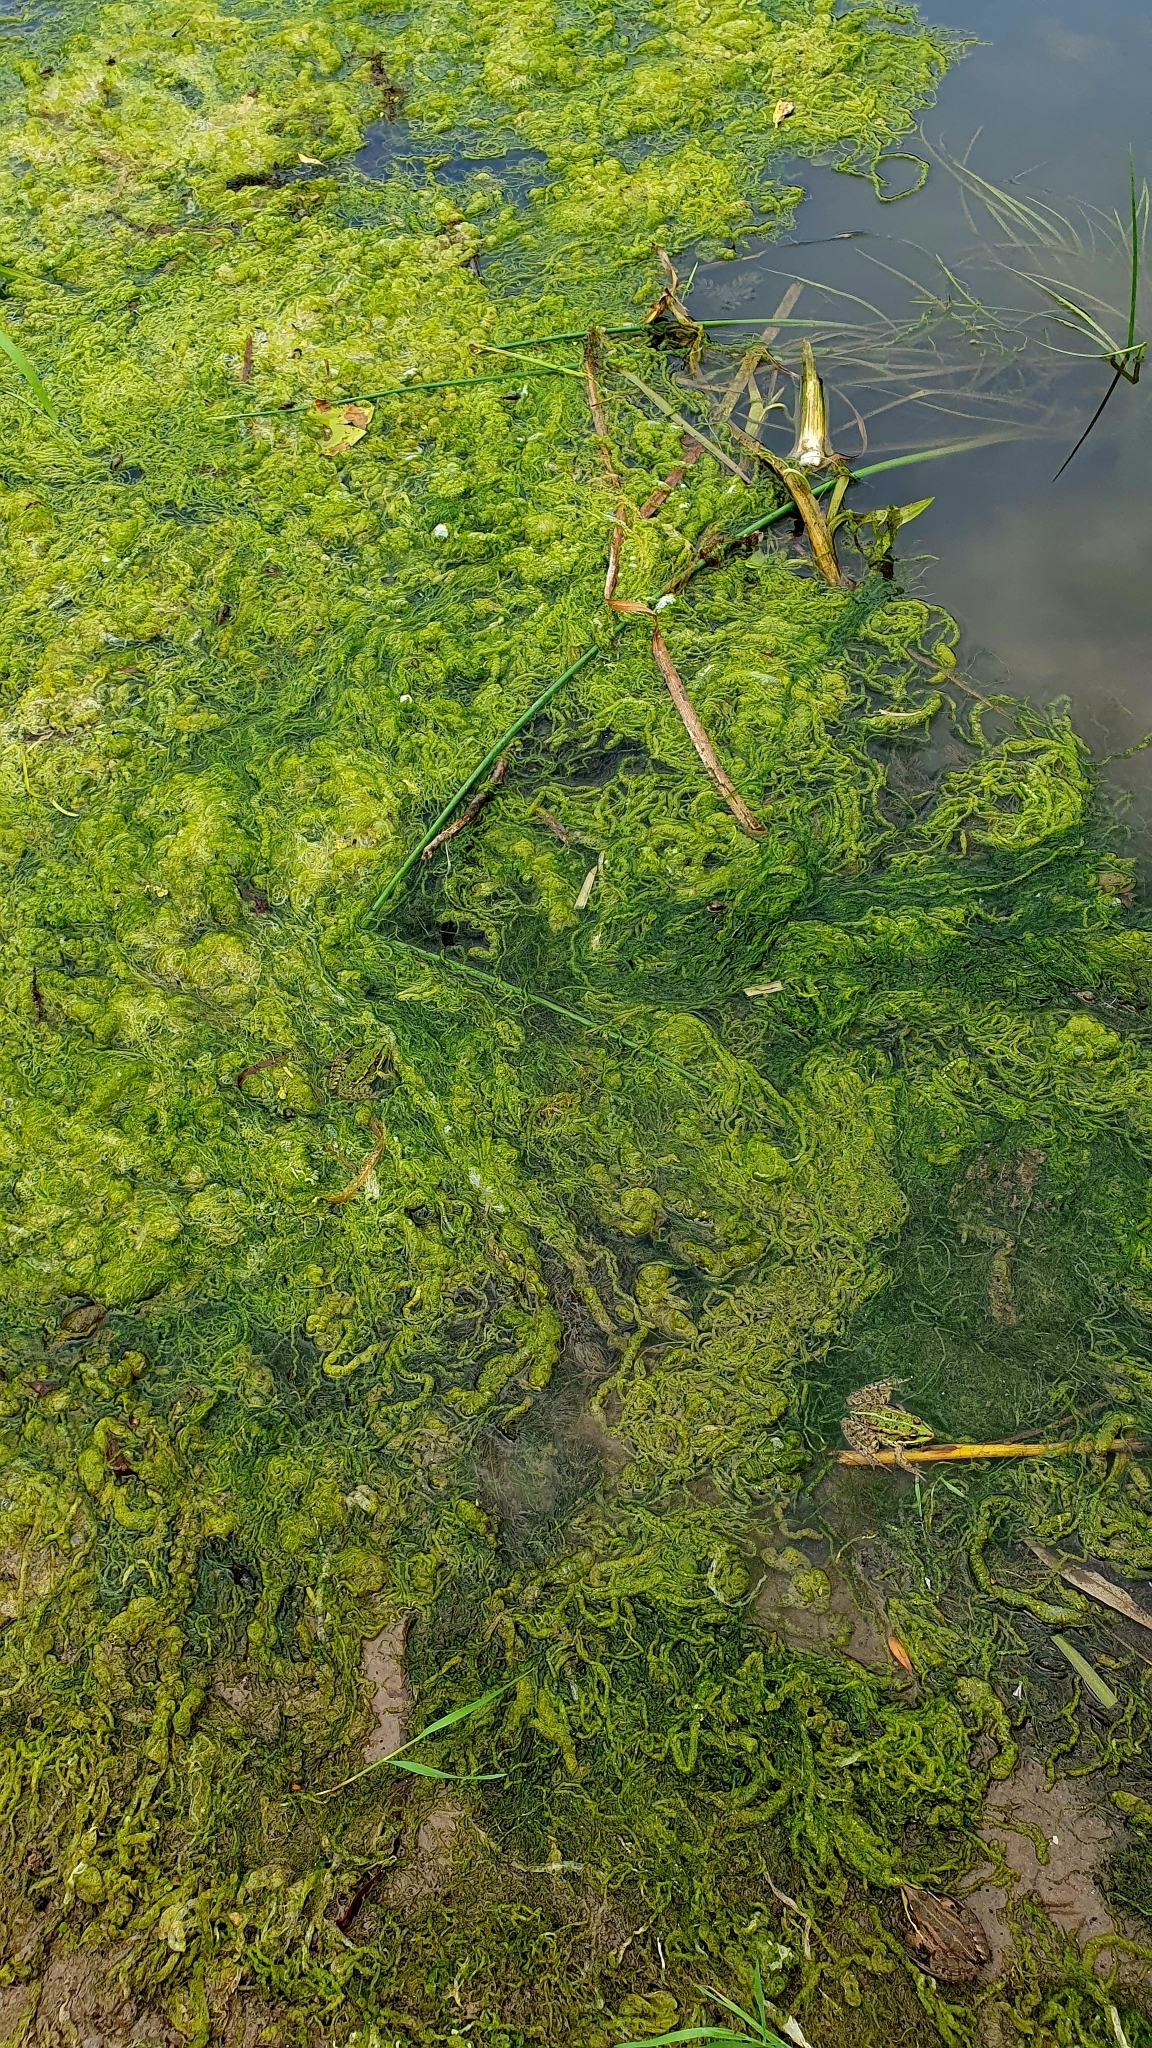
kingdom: Plantae
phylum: Chlorophyta
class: Ulvophyceae
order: Ulvales
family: Ulvaceae
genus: Ulva
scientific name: Ulva intestinalis
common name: Gut weed
